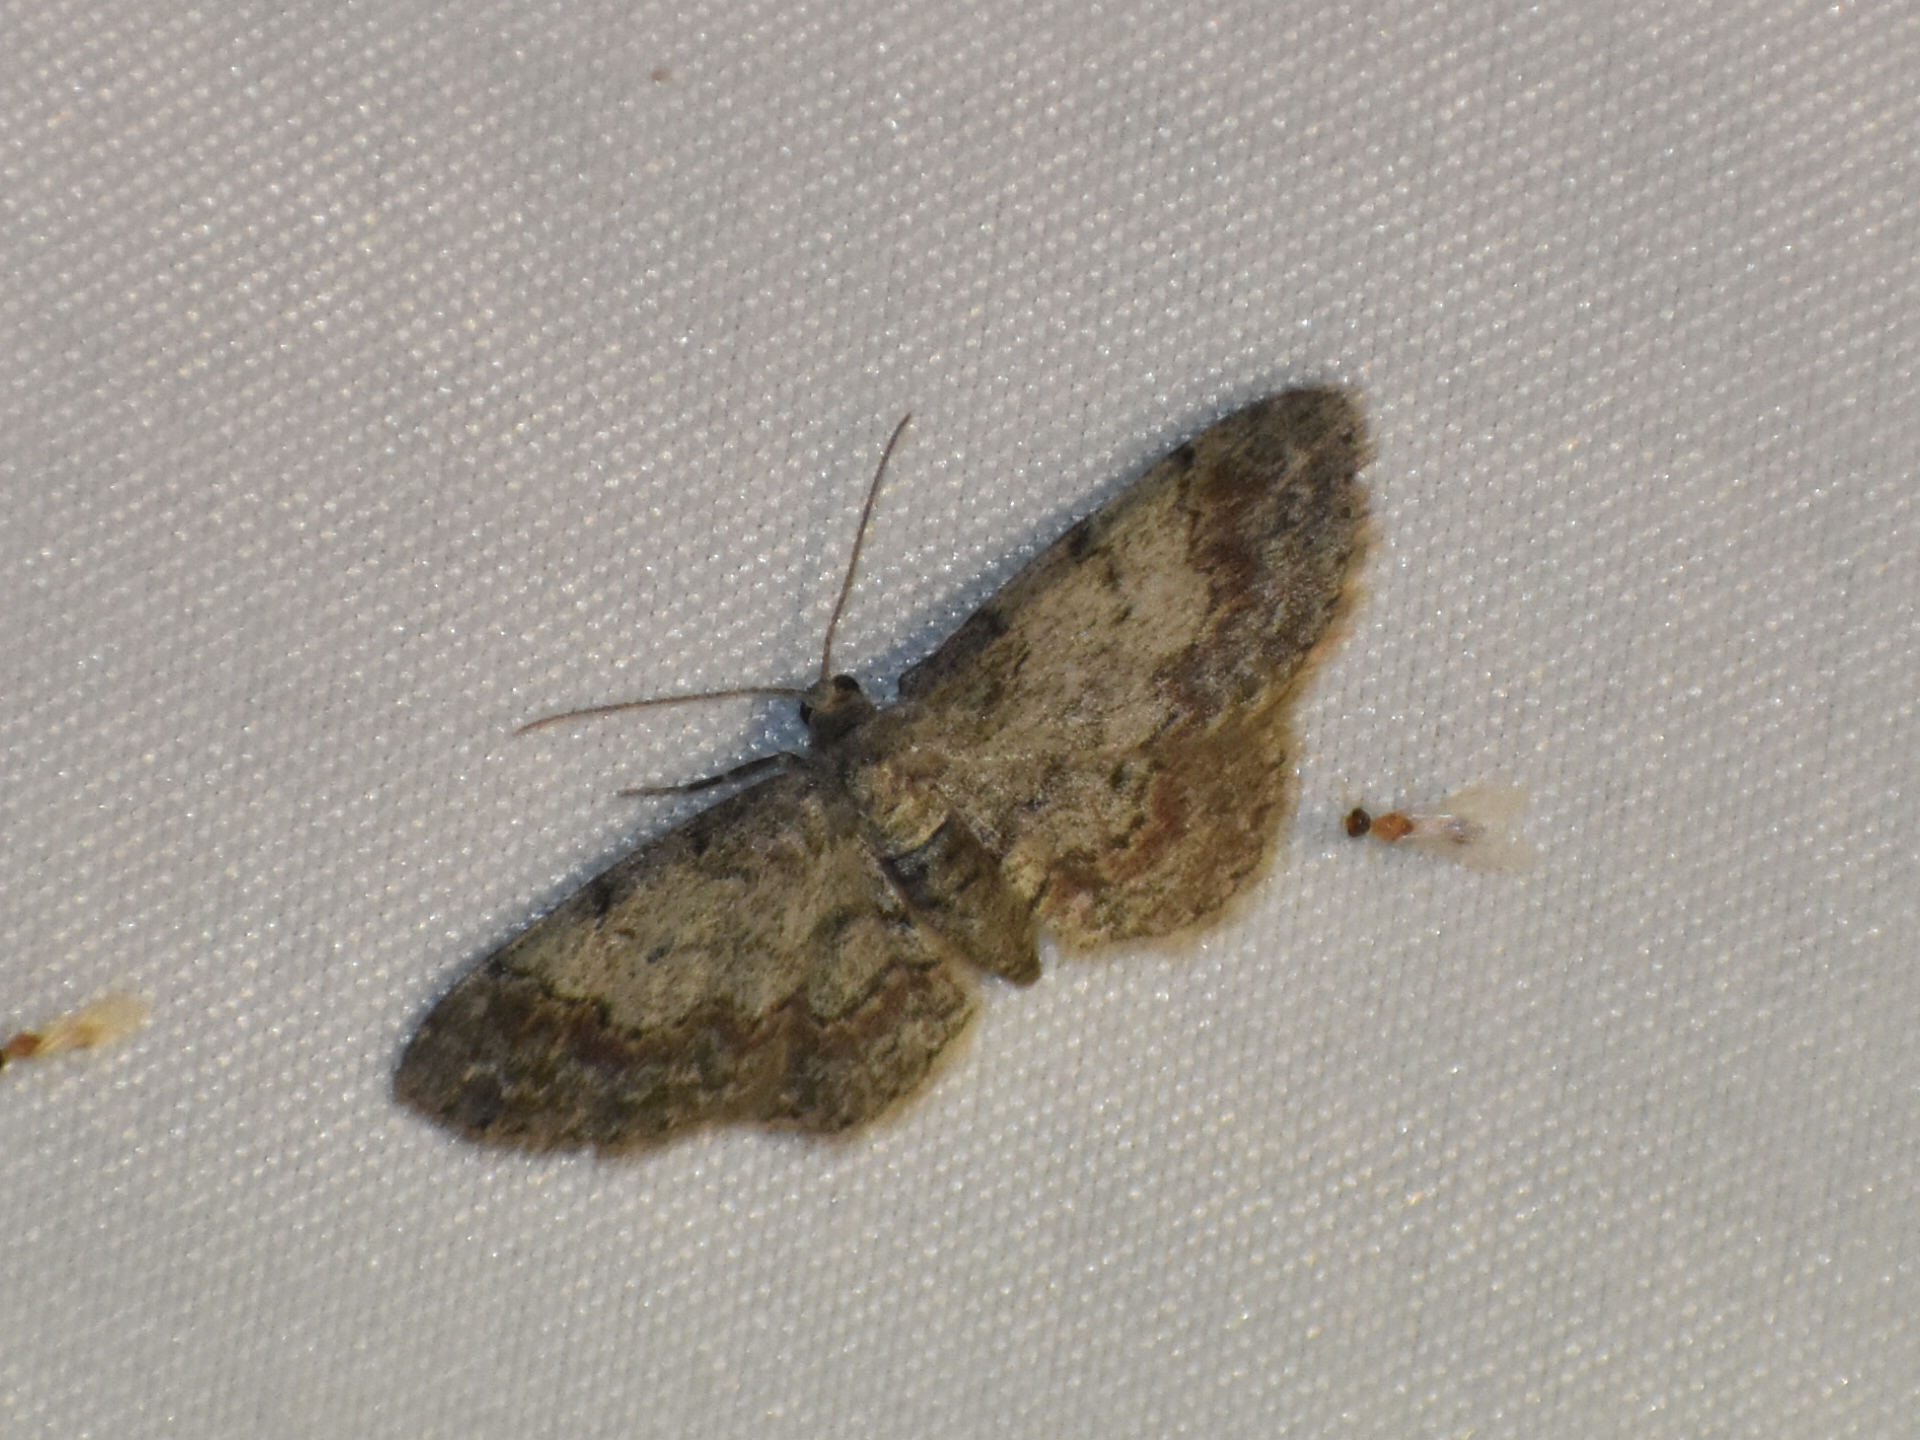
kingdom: Animalia
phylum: Arthropoda
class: Insecta
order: Lepidoptera
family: Geometridae
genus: Glenoides
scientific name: Glenoides texanaria
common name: Texas gray
